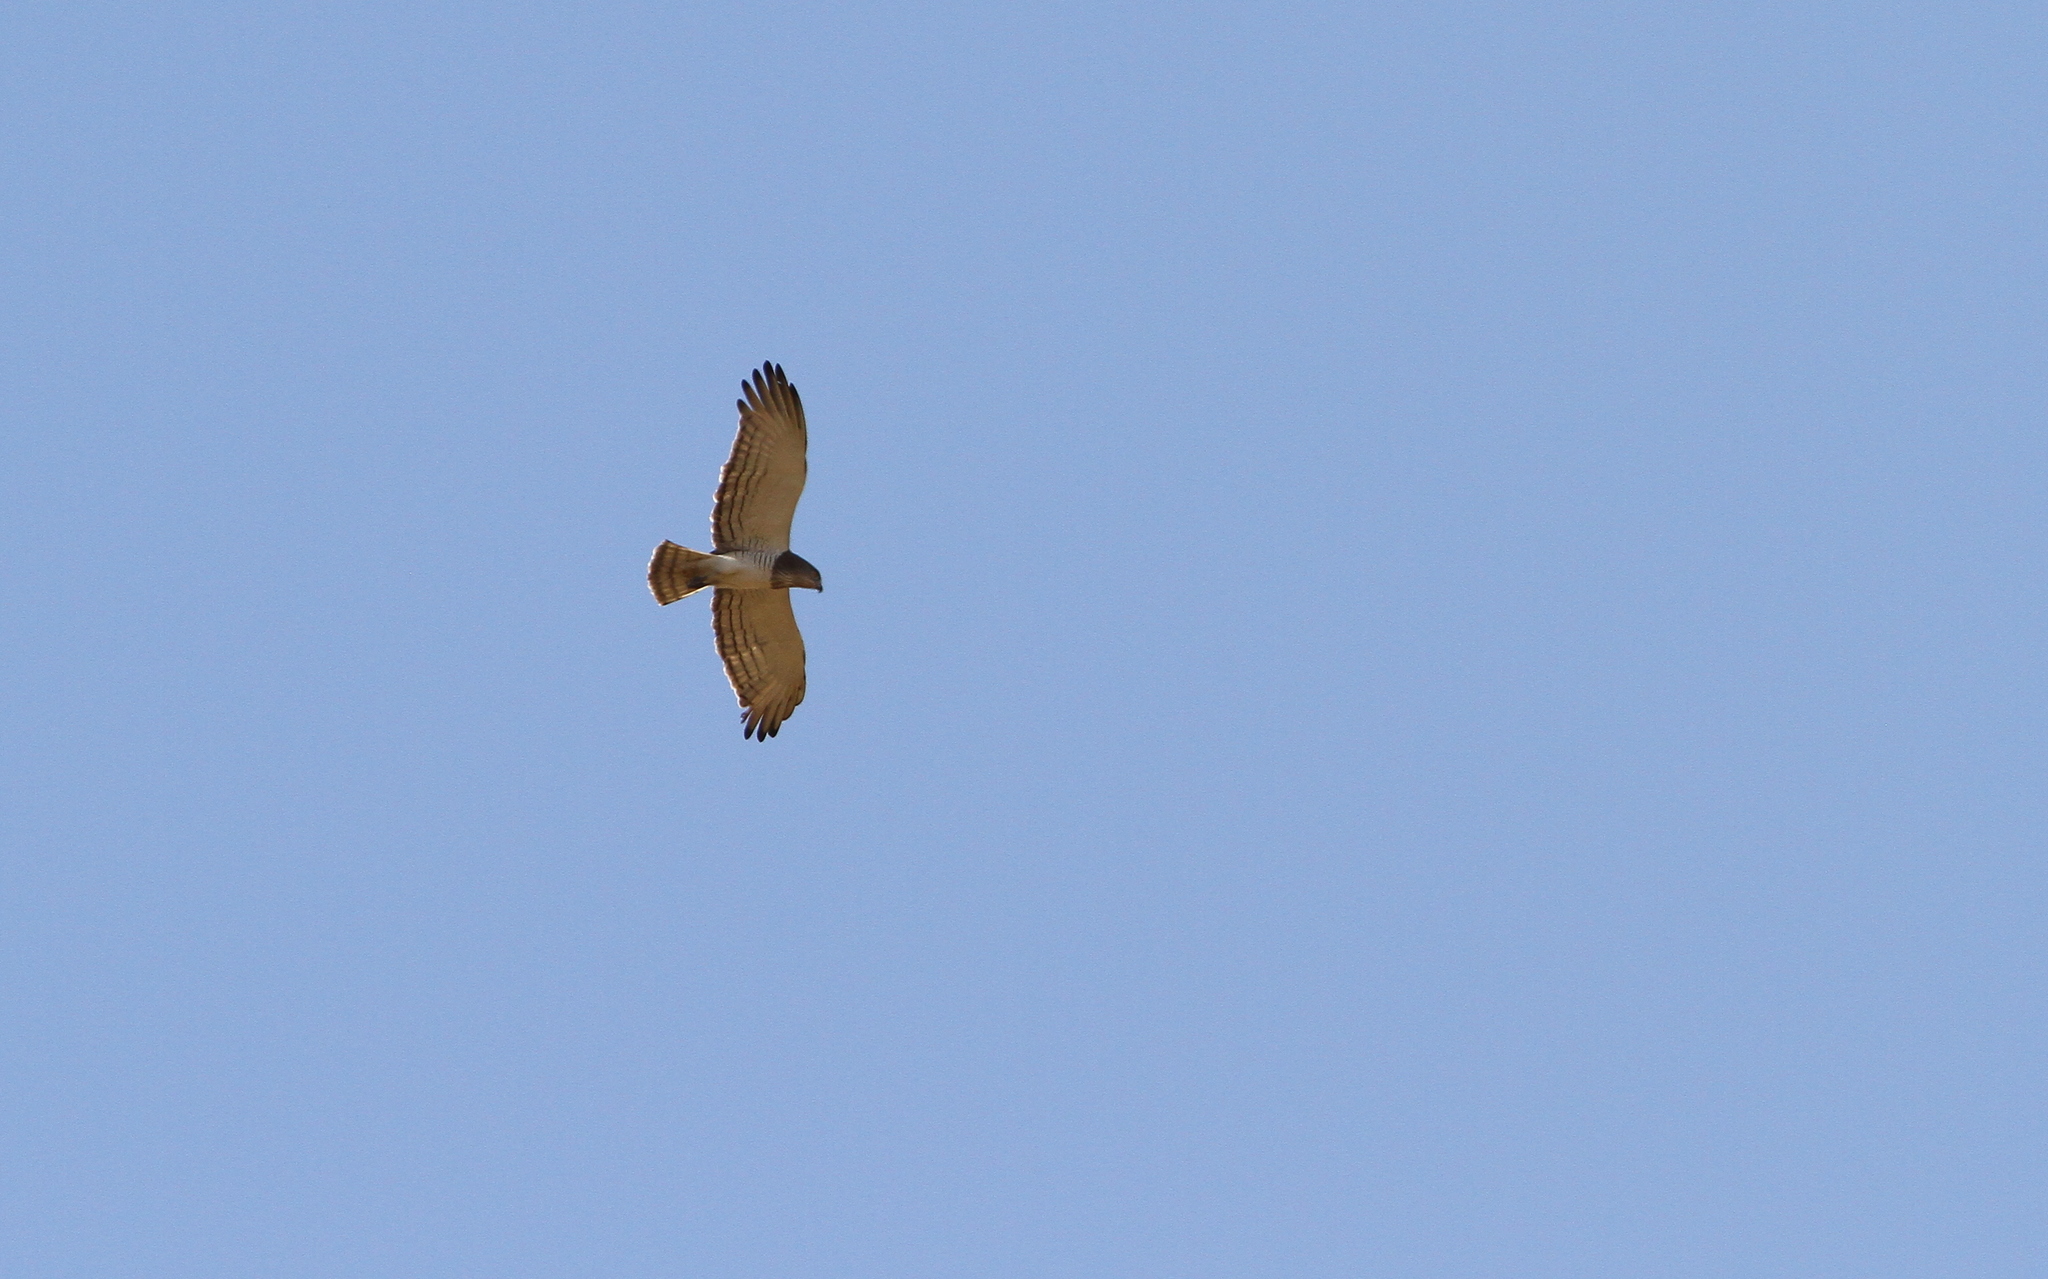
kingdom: Animalia
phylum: Chordata
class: Aves
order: Accipitriformes
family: Accipitridae
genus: Circaetus
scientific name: Circaetus beaudouini
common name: Beaudouin's snake eagle
